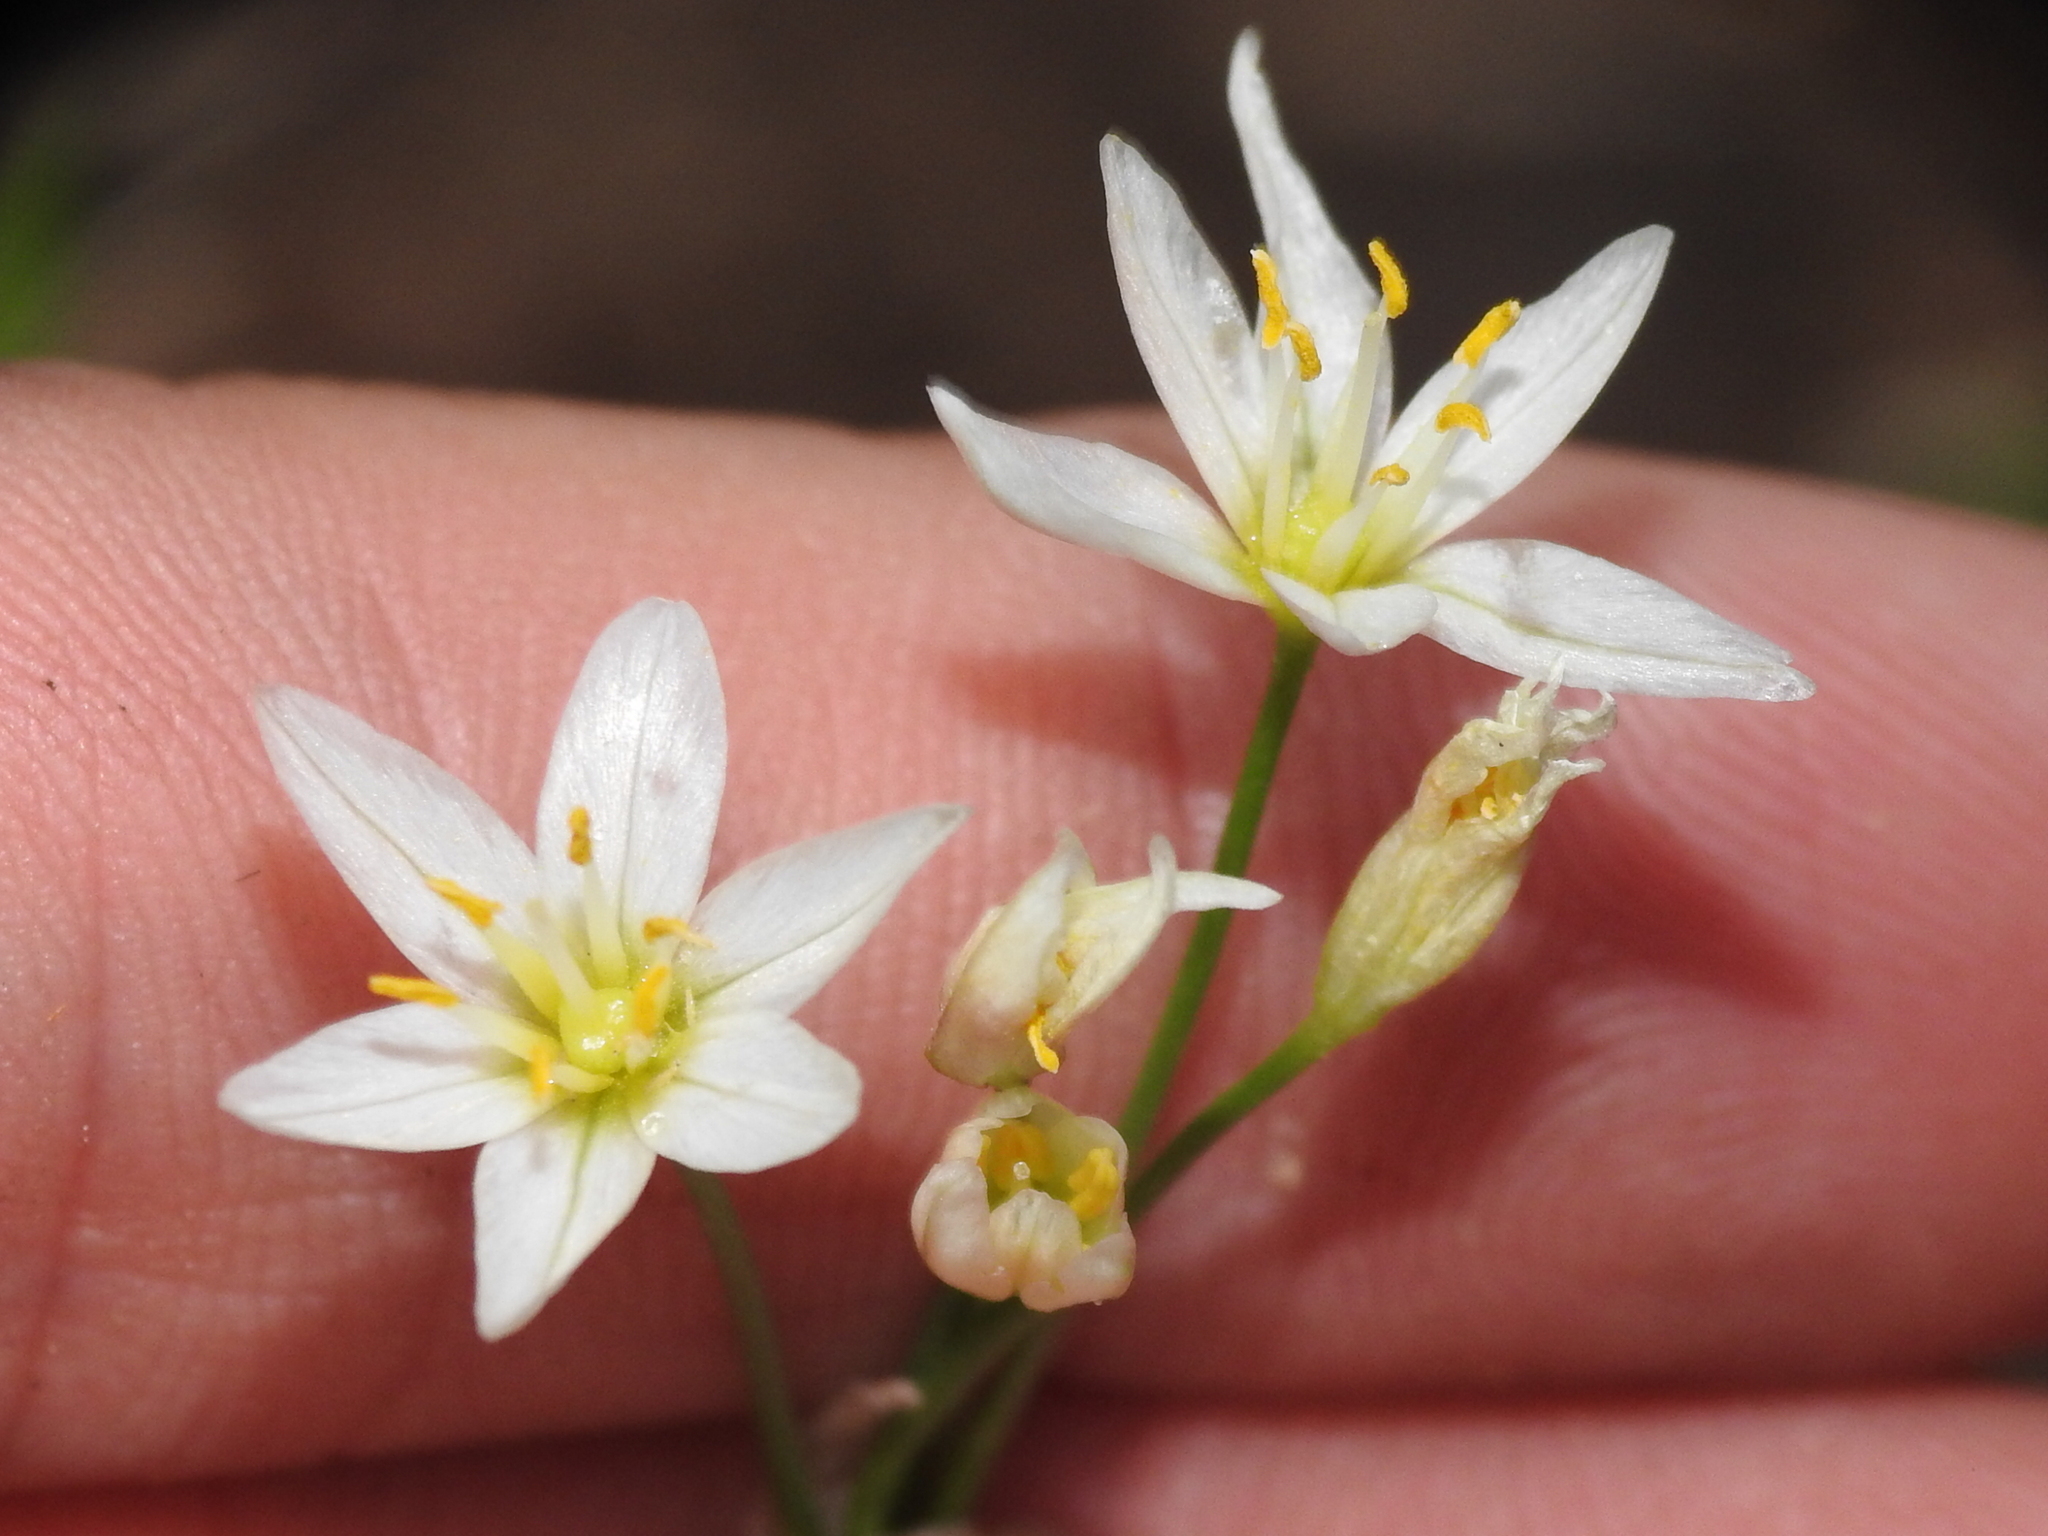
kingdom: Plantae
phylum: Tracheophyta
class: Liliopsida
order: Asparagales
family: Amaryllidaceae
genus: Nothoscordum
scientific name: Nothoscordum bivalve
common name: Crow-poison
